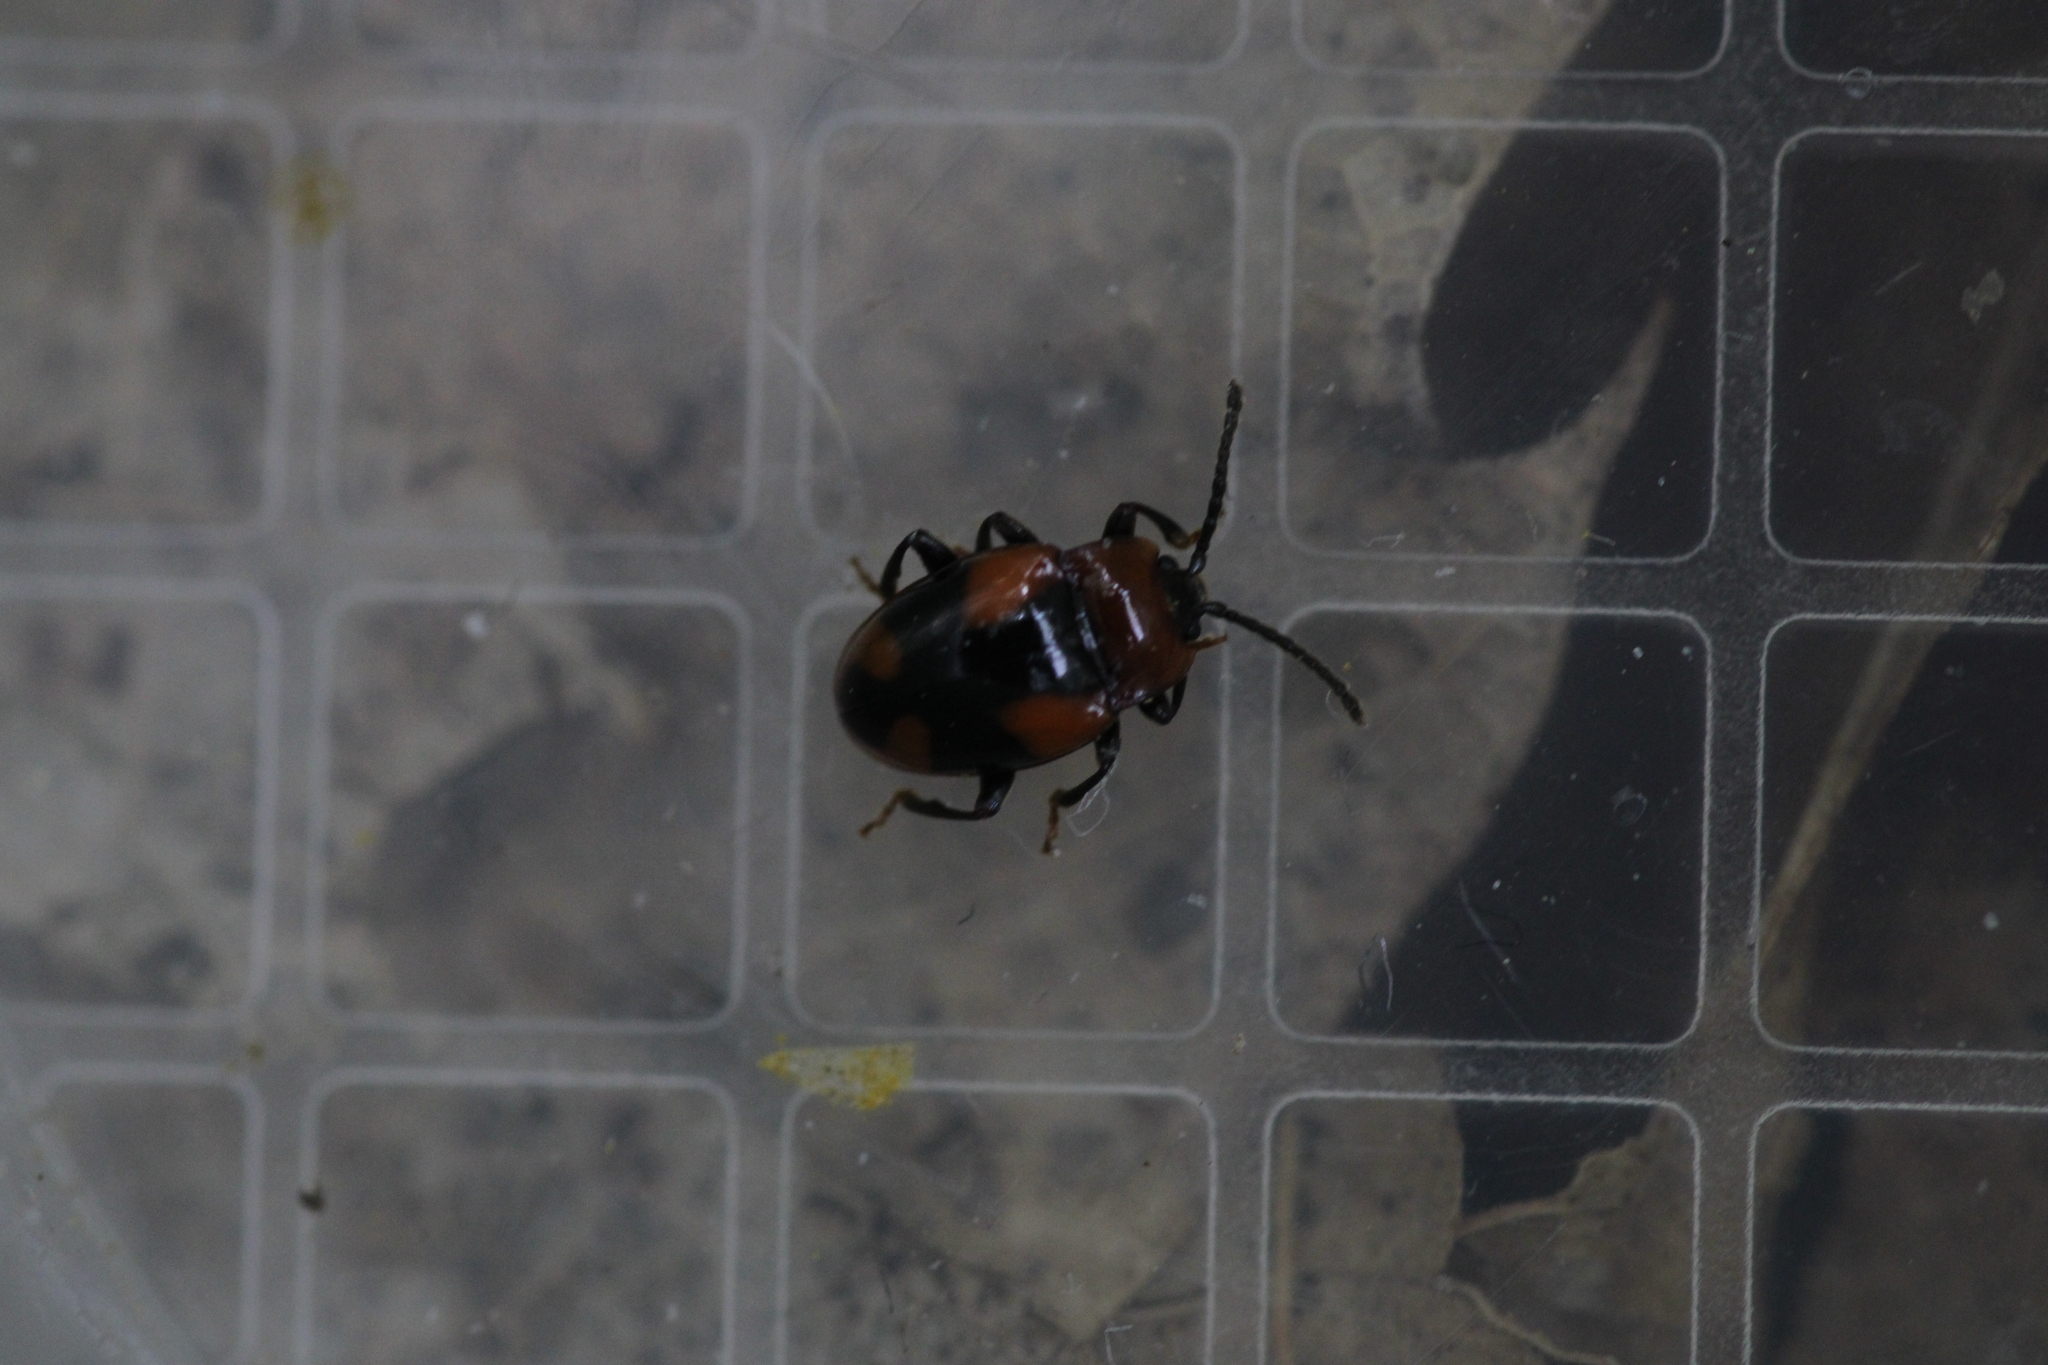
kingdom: Animalia
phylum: Arthropoda
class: Insecta
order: Coleoptera
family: Endomychidae
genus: Mycetina
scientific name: Mycetina cruciata
